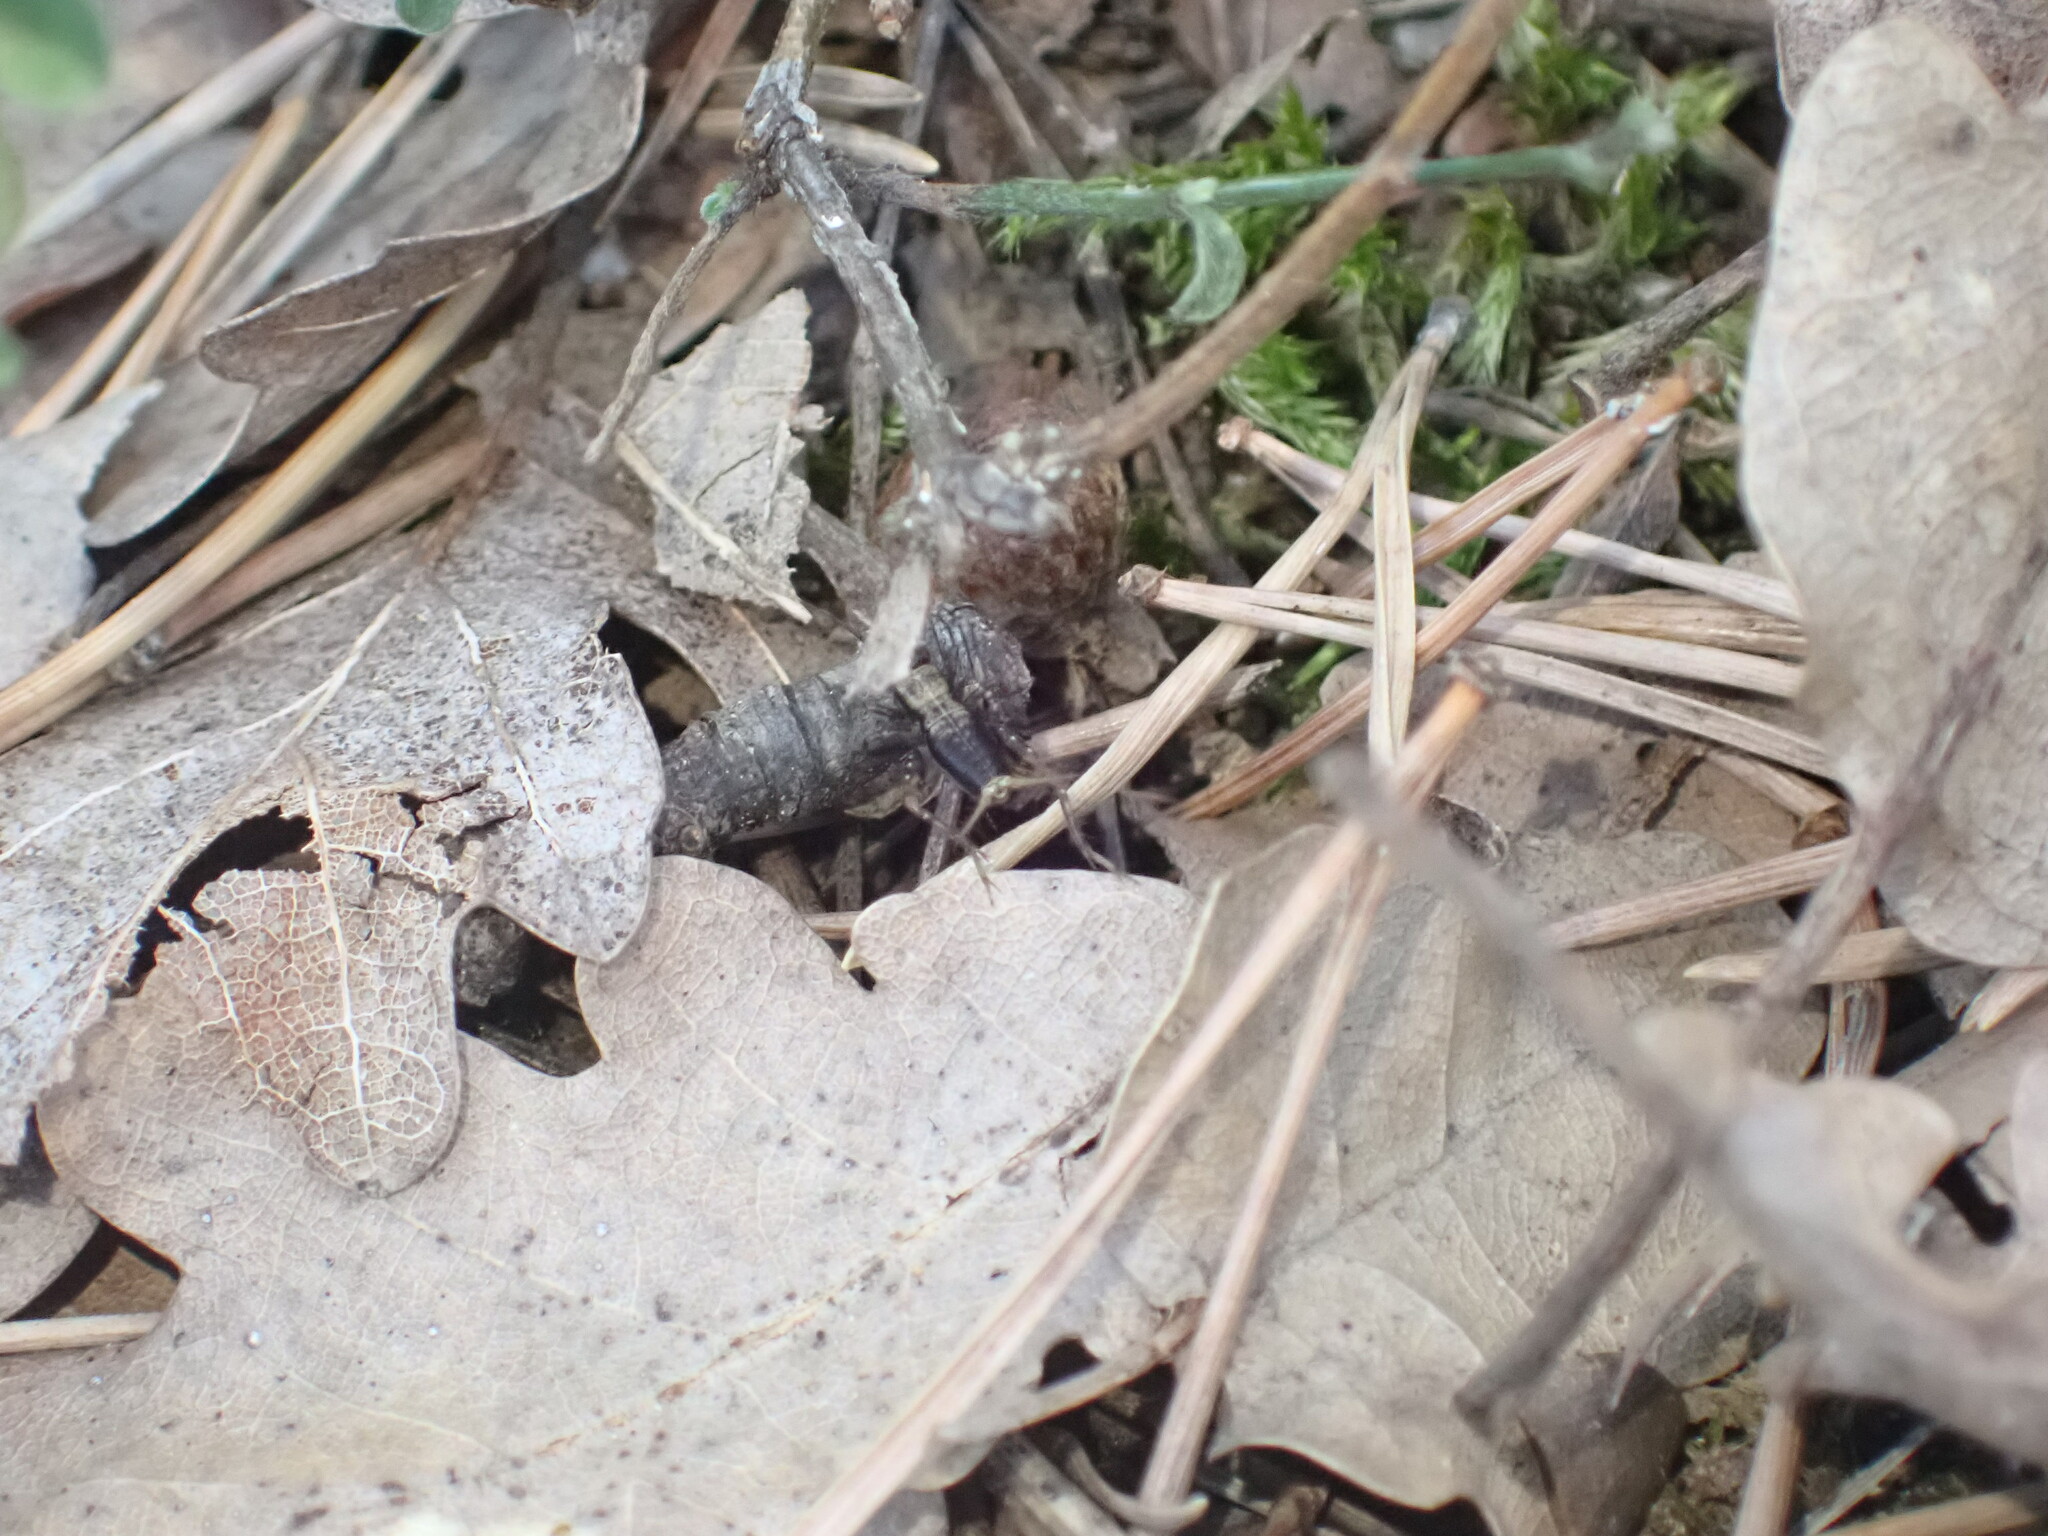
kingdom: Animalia
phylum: Arthropoda
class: Insecta
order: Orthoptera
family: Trigonidiidae
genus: Nemobius
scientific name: Nemobius sylvestris
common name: Wood-cricket
